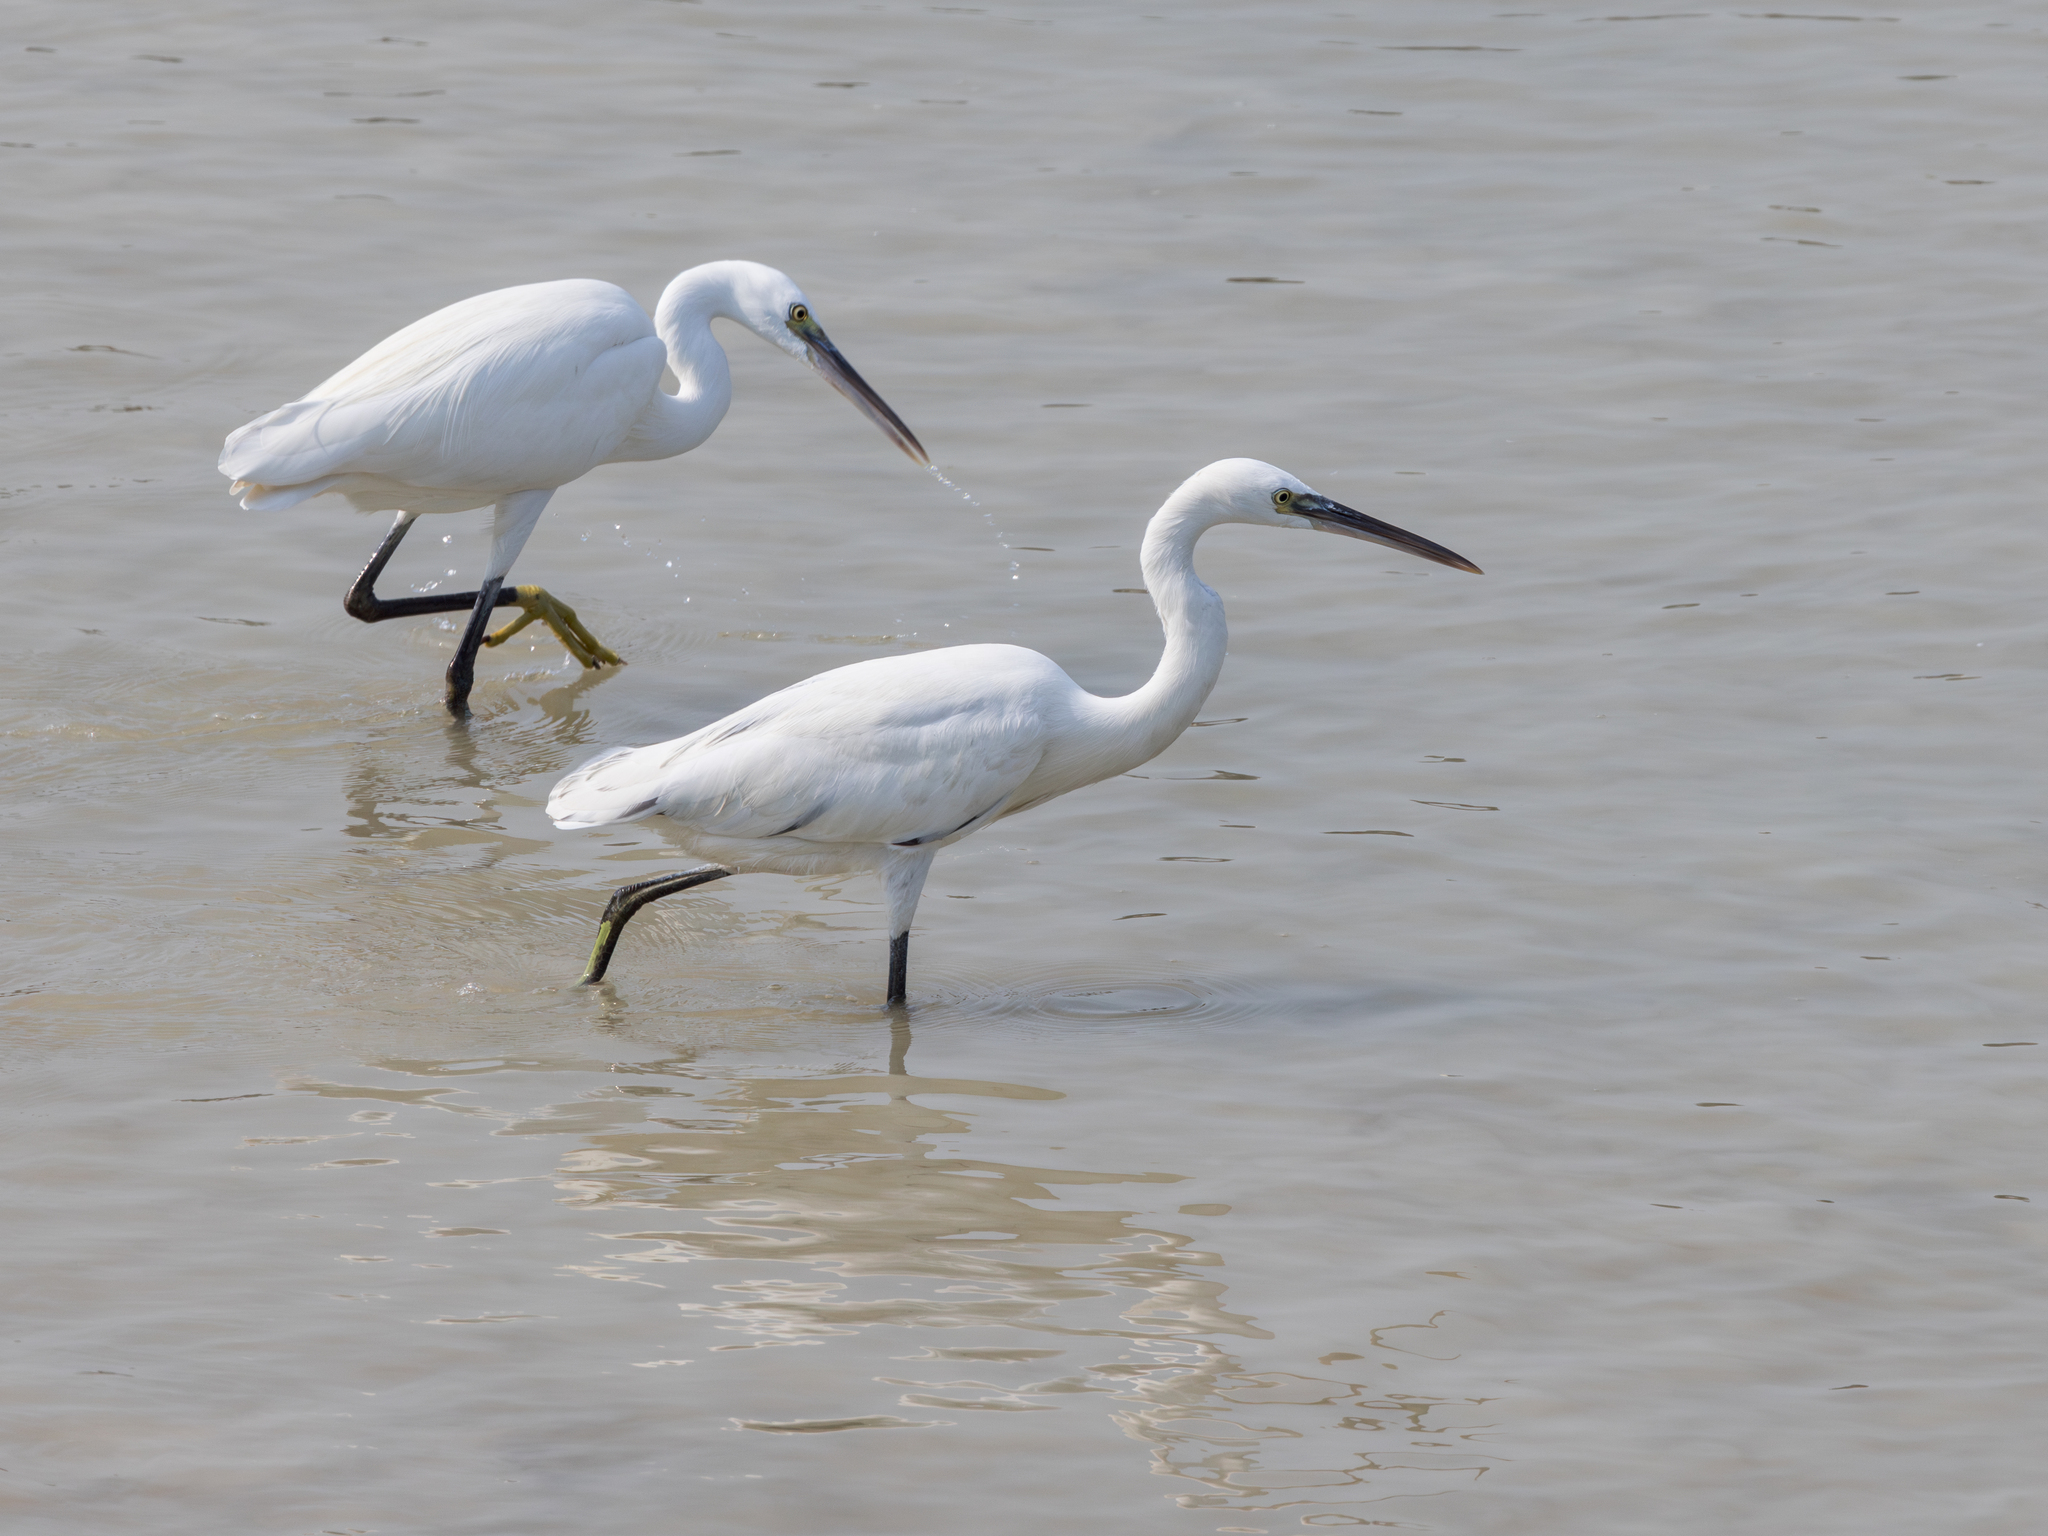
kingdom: Animalia
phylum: Chordata
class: Aves
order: Pelecaniformes
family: Ardeidae
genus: Egretta
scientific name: Egretta gularis
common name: Western reef-heron
